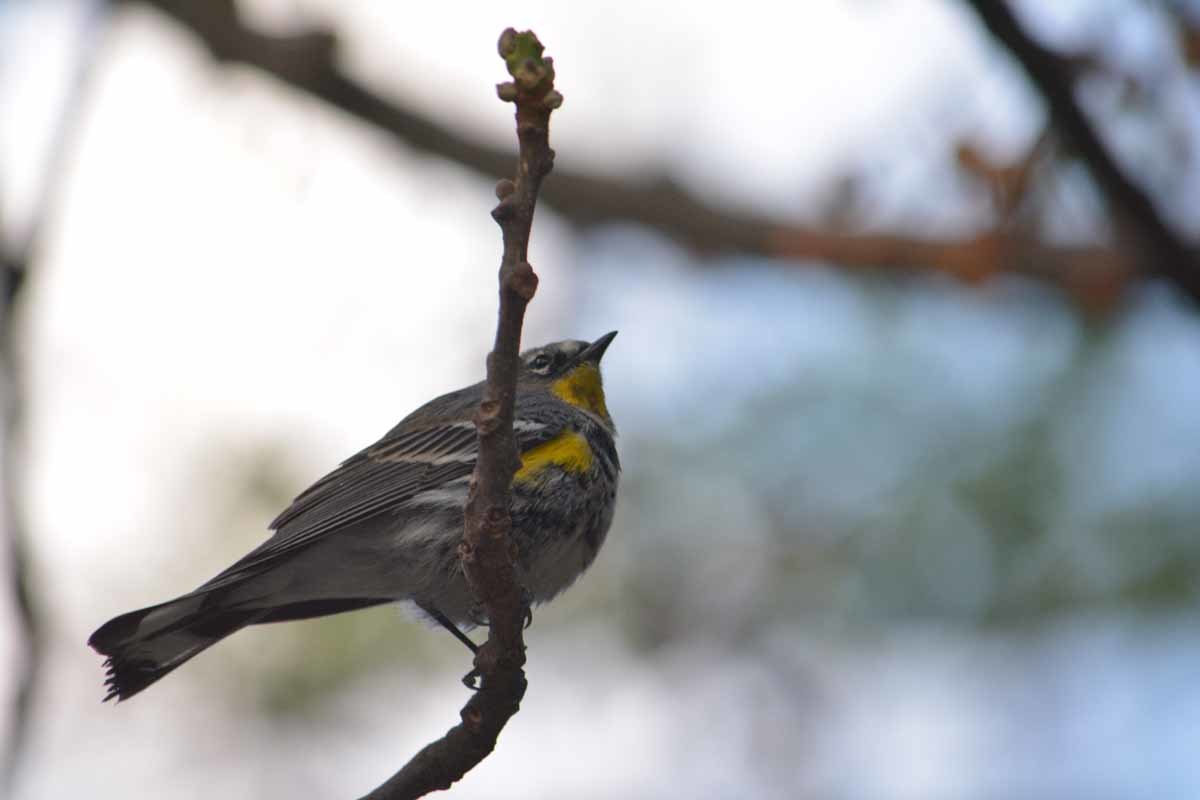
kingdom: Animalia
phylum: Chordata
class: Aves
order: Passeriformes
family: Parulidae
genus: Setophaga
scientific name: Setophaga coronata
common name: Myrtle warbler
